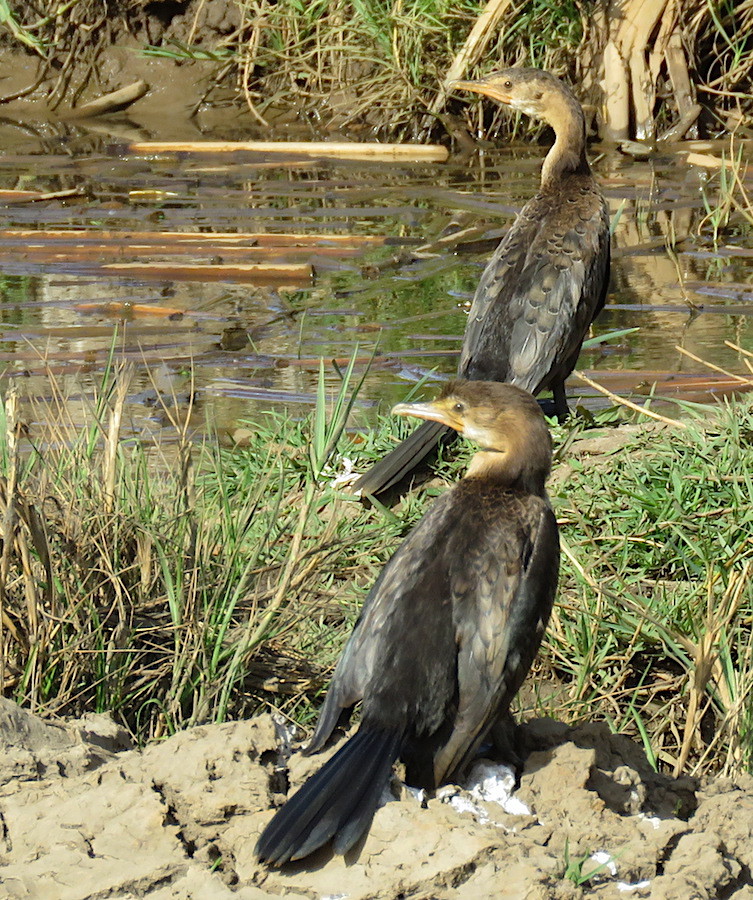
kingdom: Animalia
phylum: Chordata
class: Aves
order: Suliformes
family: Phalacrocoracidae
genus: Microcarbo
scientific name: Microcarbo africanus
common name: Long-tailed cormorant
